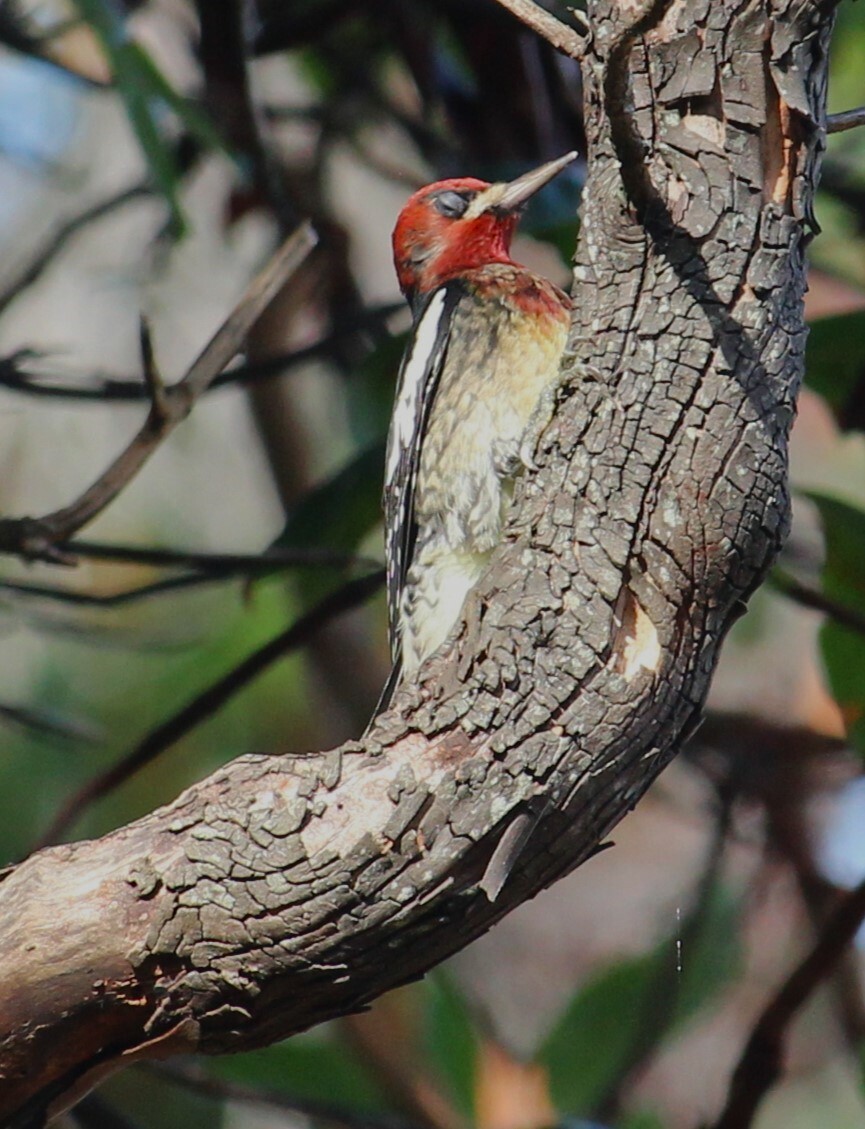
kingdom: Animalia
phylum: Chordata
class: Aves
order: Piciformes
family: Picidae
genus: Sphyrapicus
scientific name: Sphyrapicus ruber
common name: Red-breasted sapsucker
